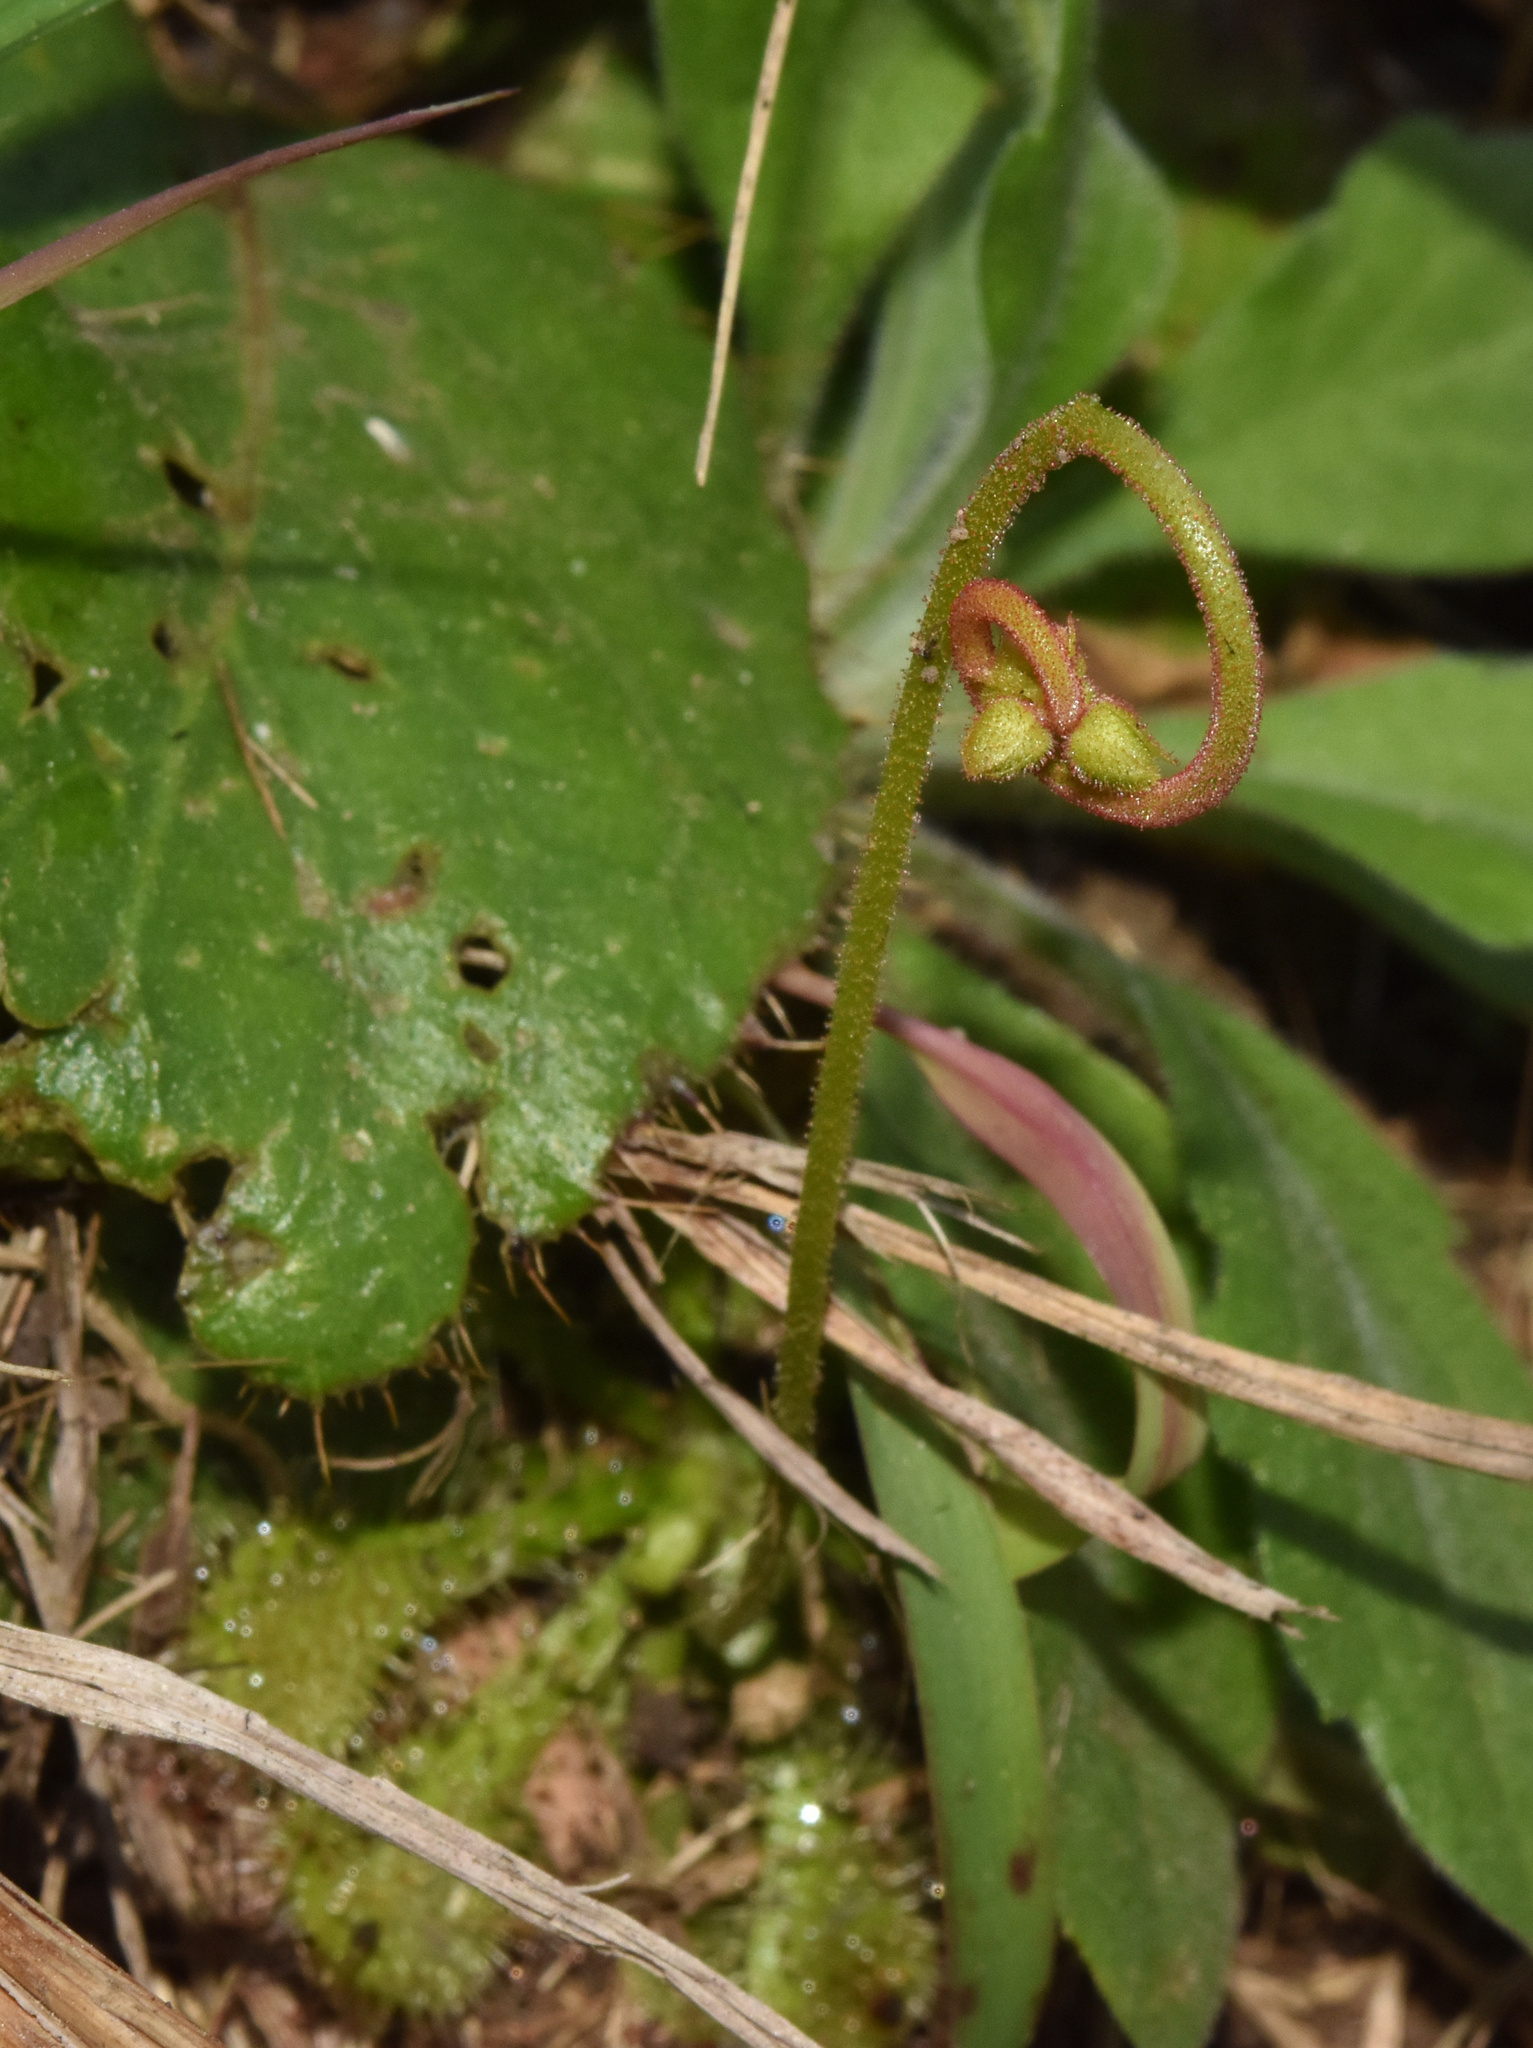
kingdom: Plantae
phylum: Tracheophyta
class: Magnoliopsida
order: Caryophyllales
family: Droseraceae
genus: Drosera
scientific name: Drosera natalensis
